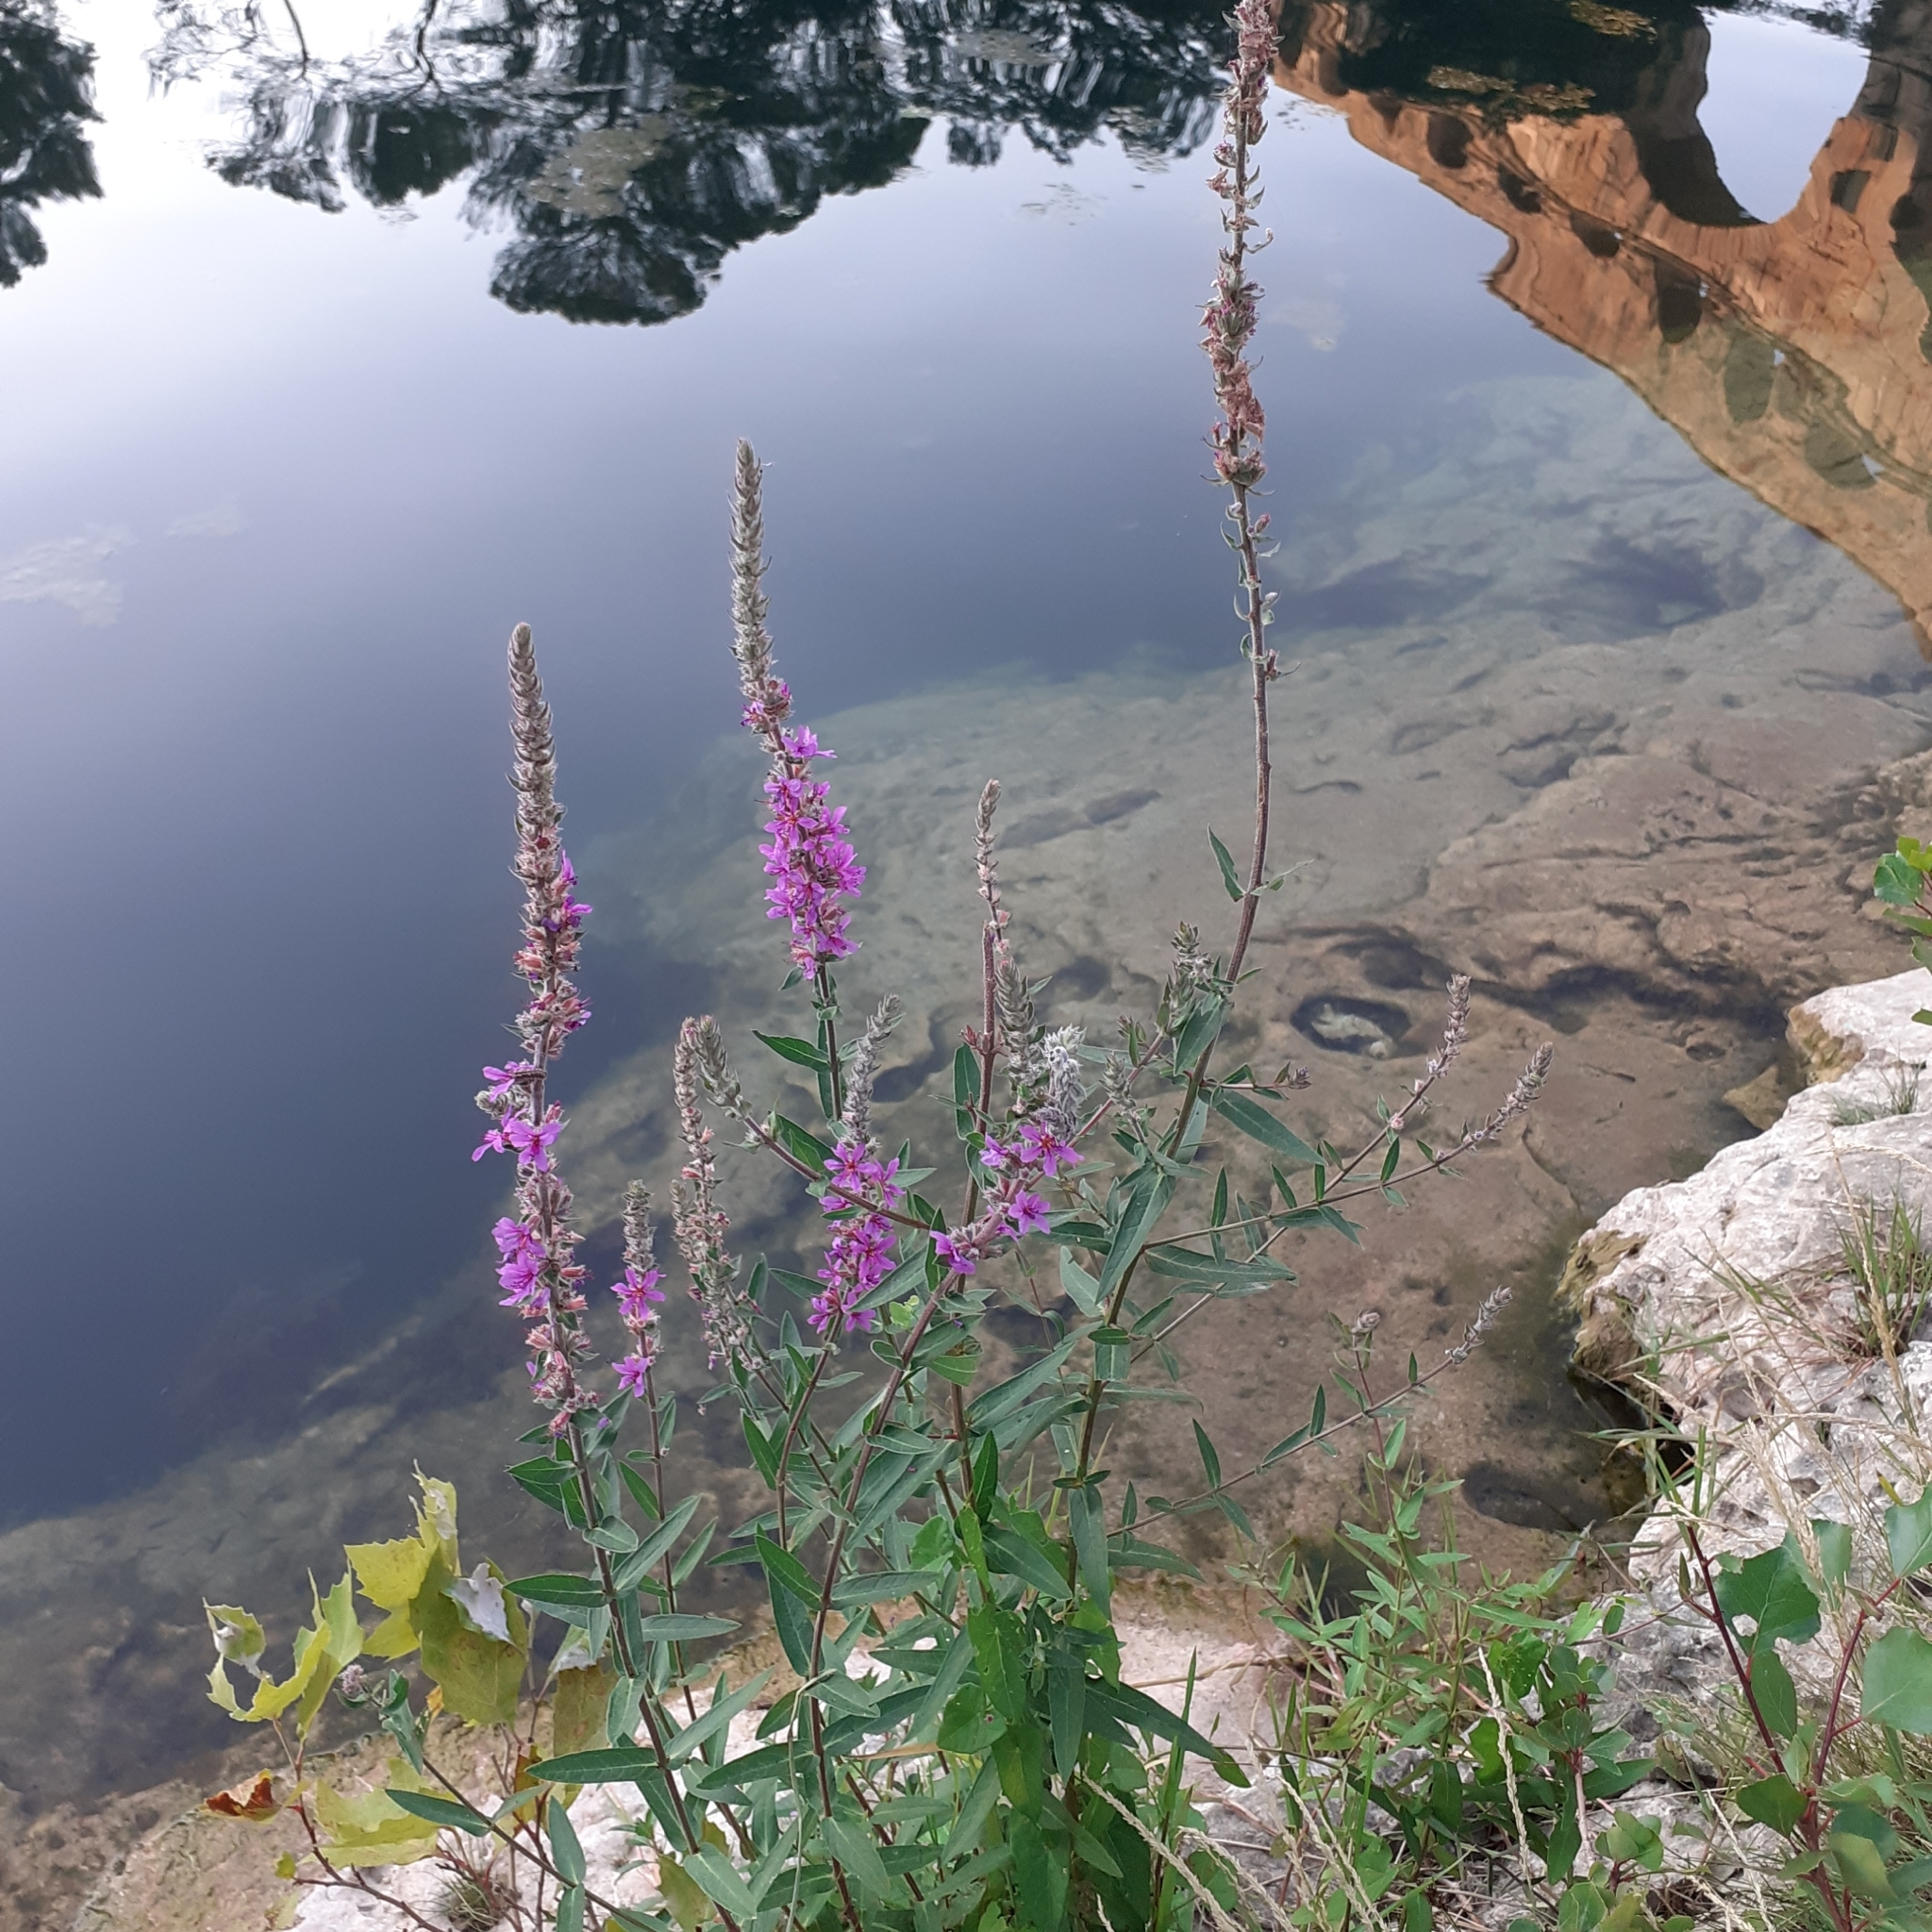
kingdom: Plantae
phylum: Tracheophyta
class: Magnoliopsida
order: Myrtales
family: Lythraceae
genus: Lythrum
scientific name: Lythrum salicaria
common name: Purple loosestrife
